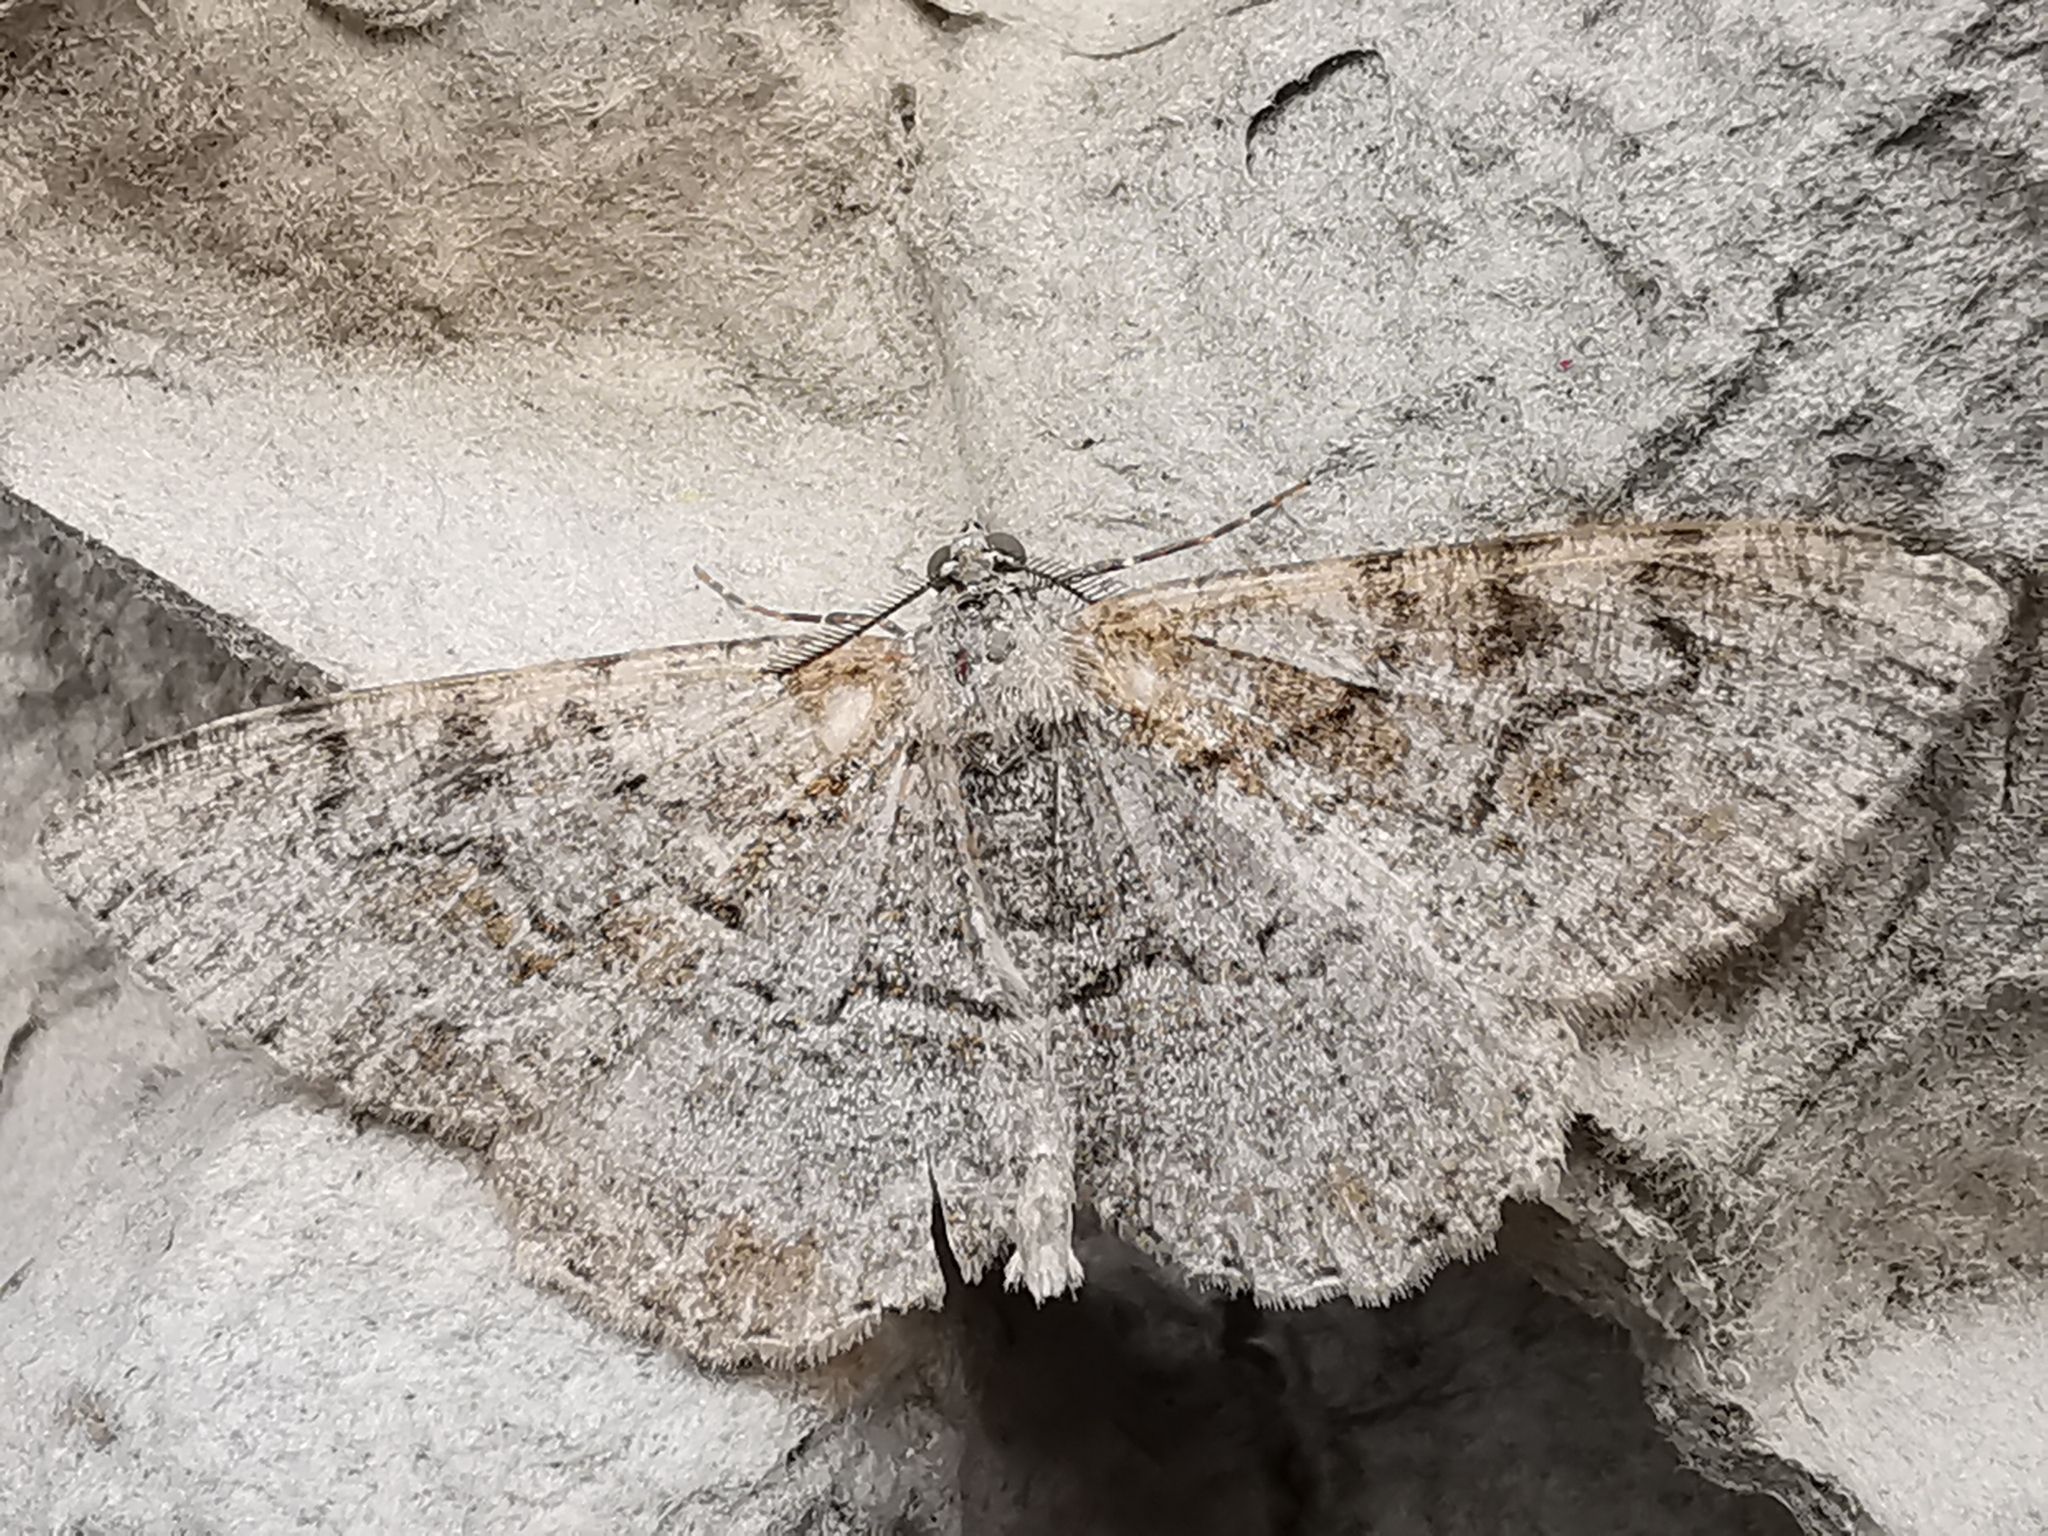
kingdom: Animalia
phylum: Arthropoda
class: Insecta
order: Lepidoptera
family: Geometridae
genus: Alcis
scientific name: Alcis repandata
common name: Mottled beauty
